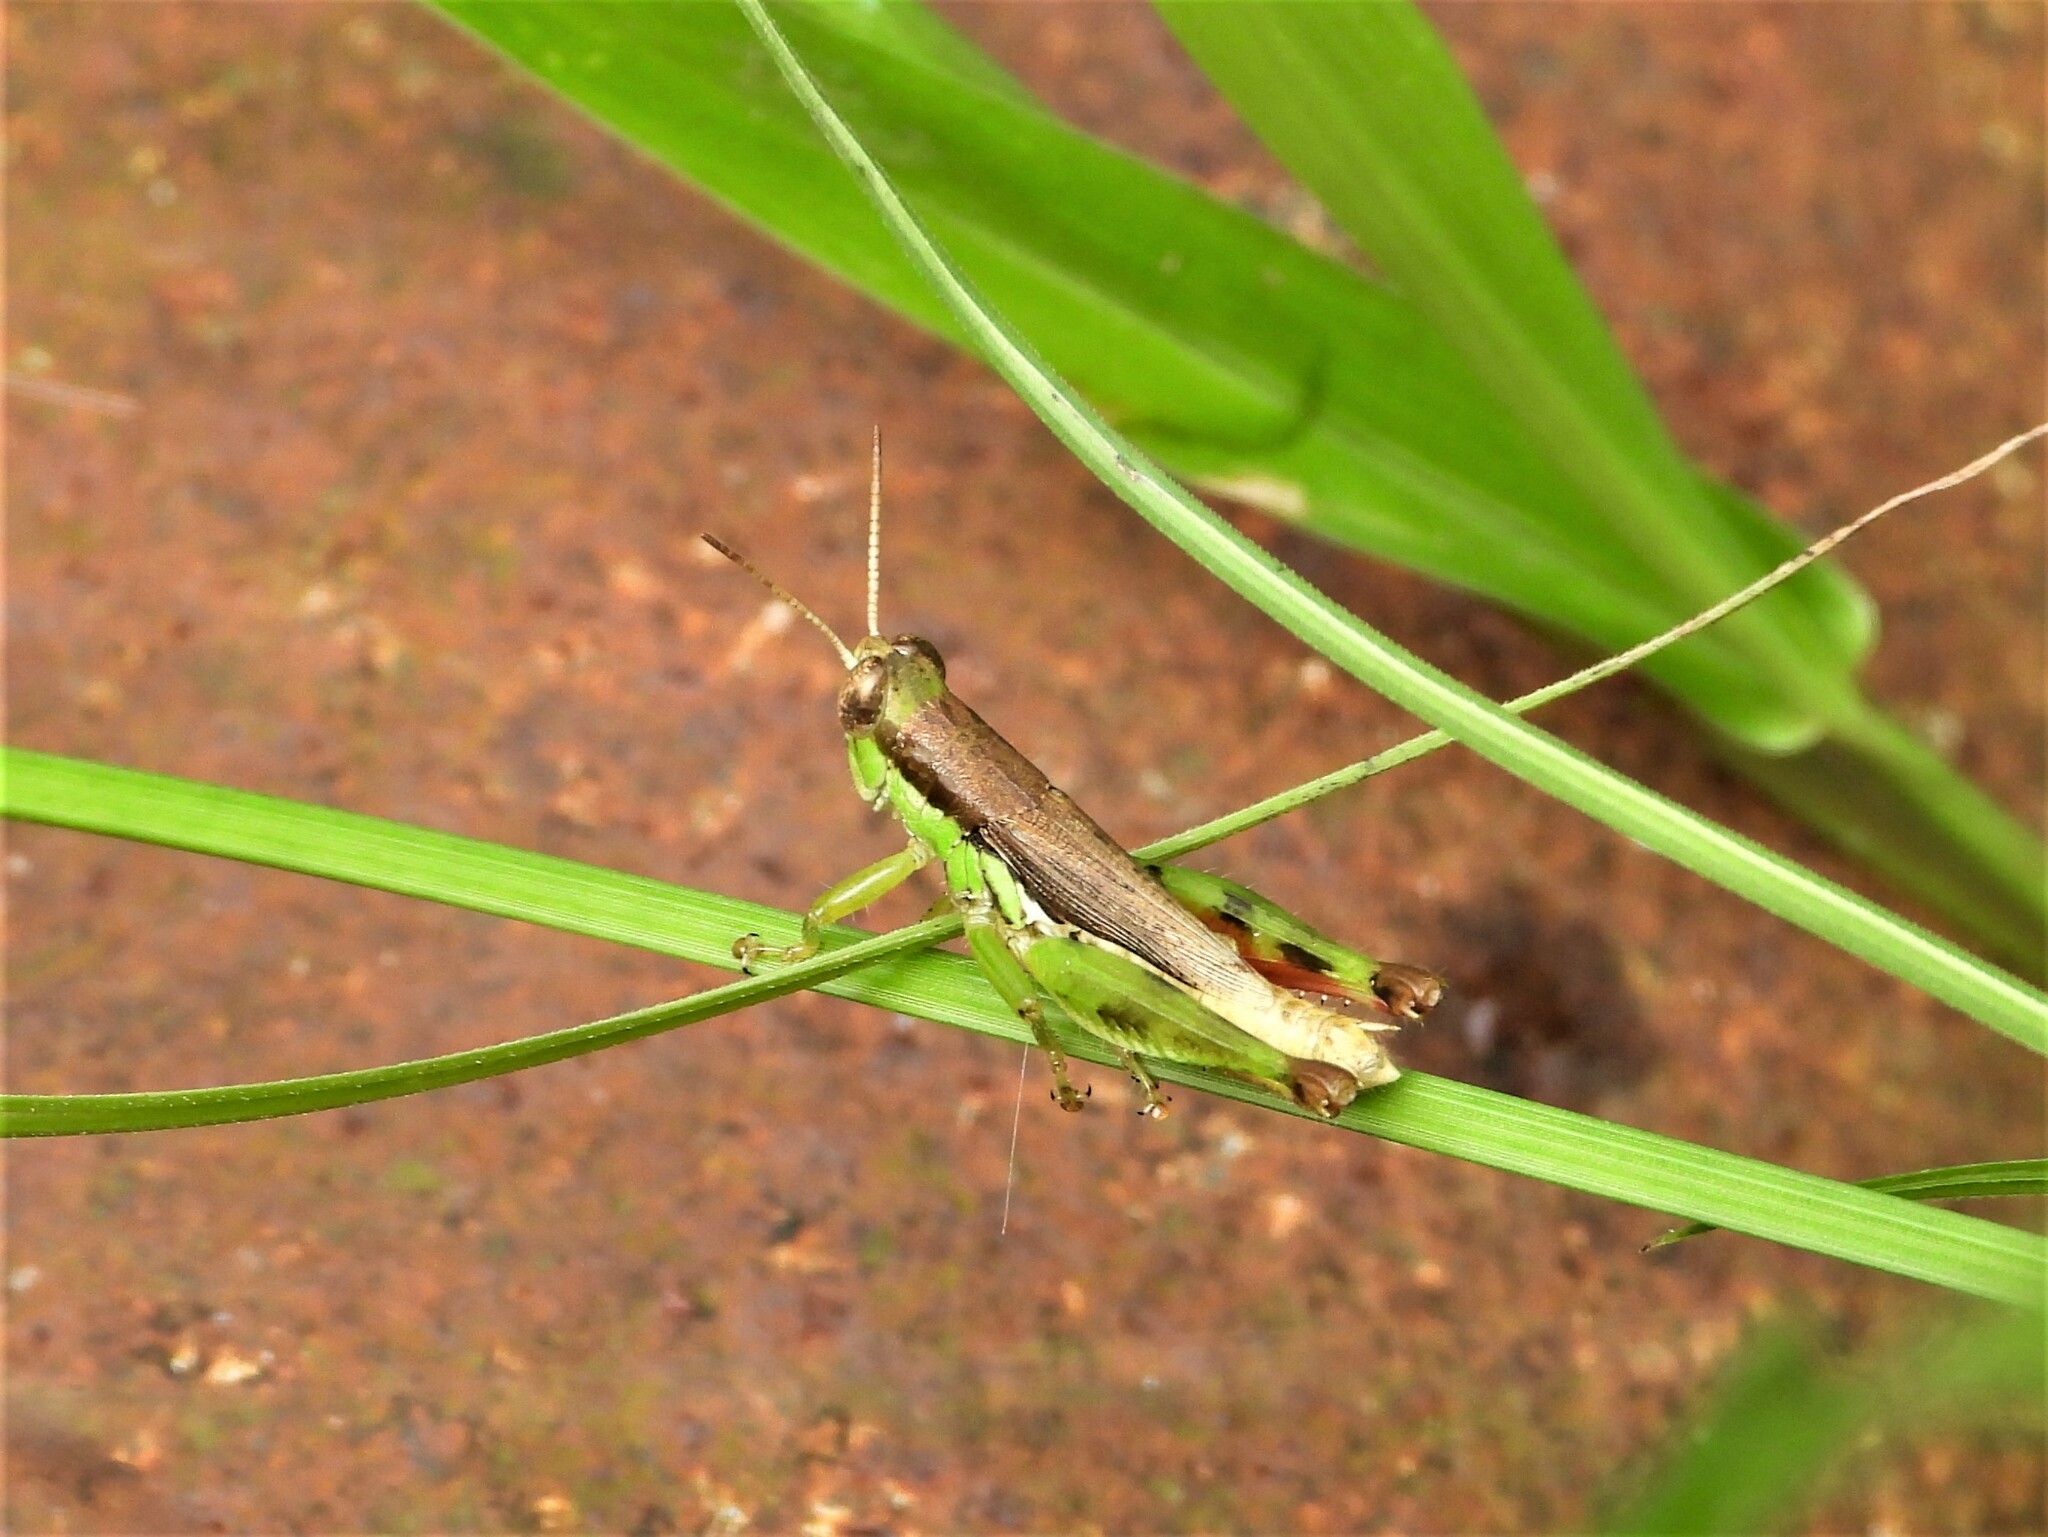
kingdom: Animalia
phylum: Arthropoda
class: Insecta
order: Orthoptera
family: Acrididae
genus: Pseudoxya
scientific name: Pseudoxya diminuta
